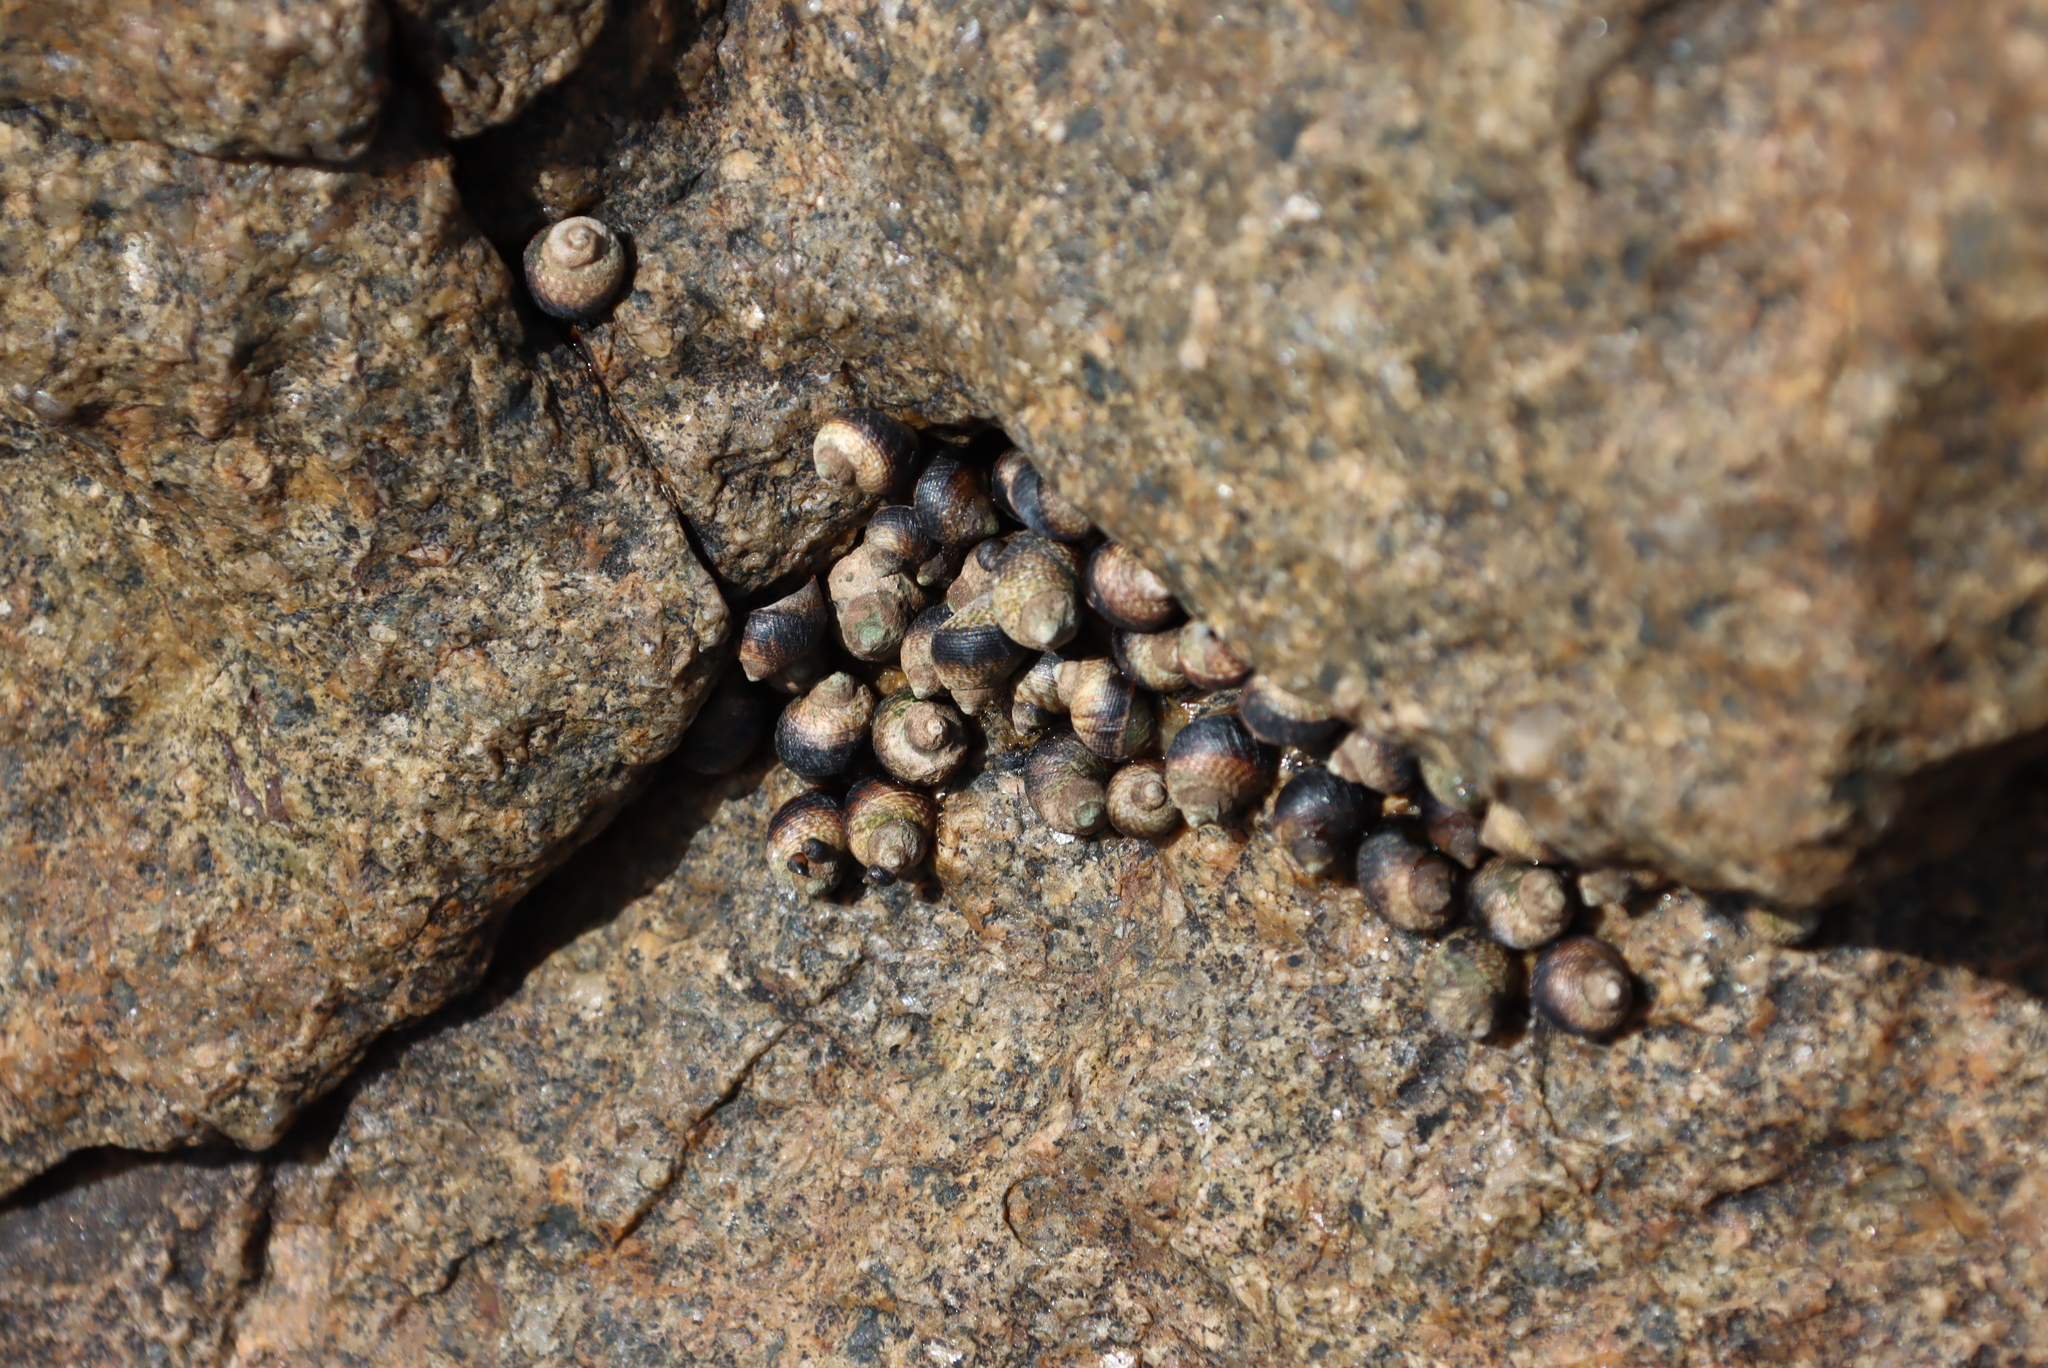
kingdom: Animalia
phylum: Mollusca
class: Gastropoda
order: Littorinimorpha
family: Littorinidae
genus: Afrolittorina
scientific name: Afrolittorina knysnaensis
